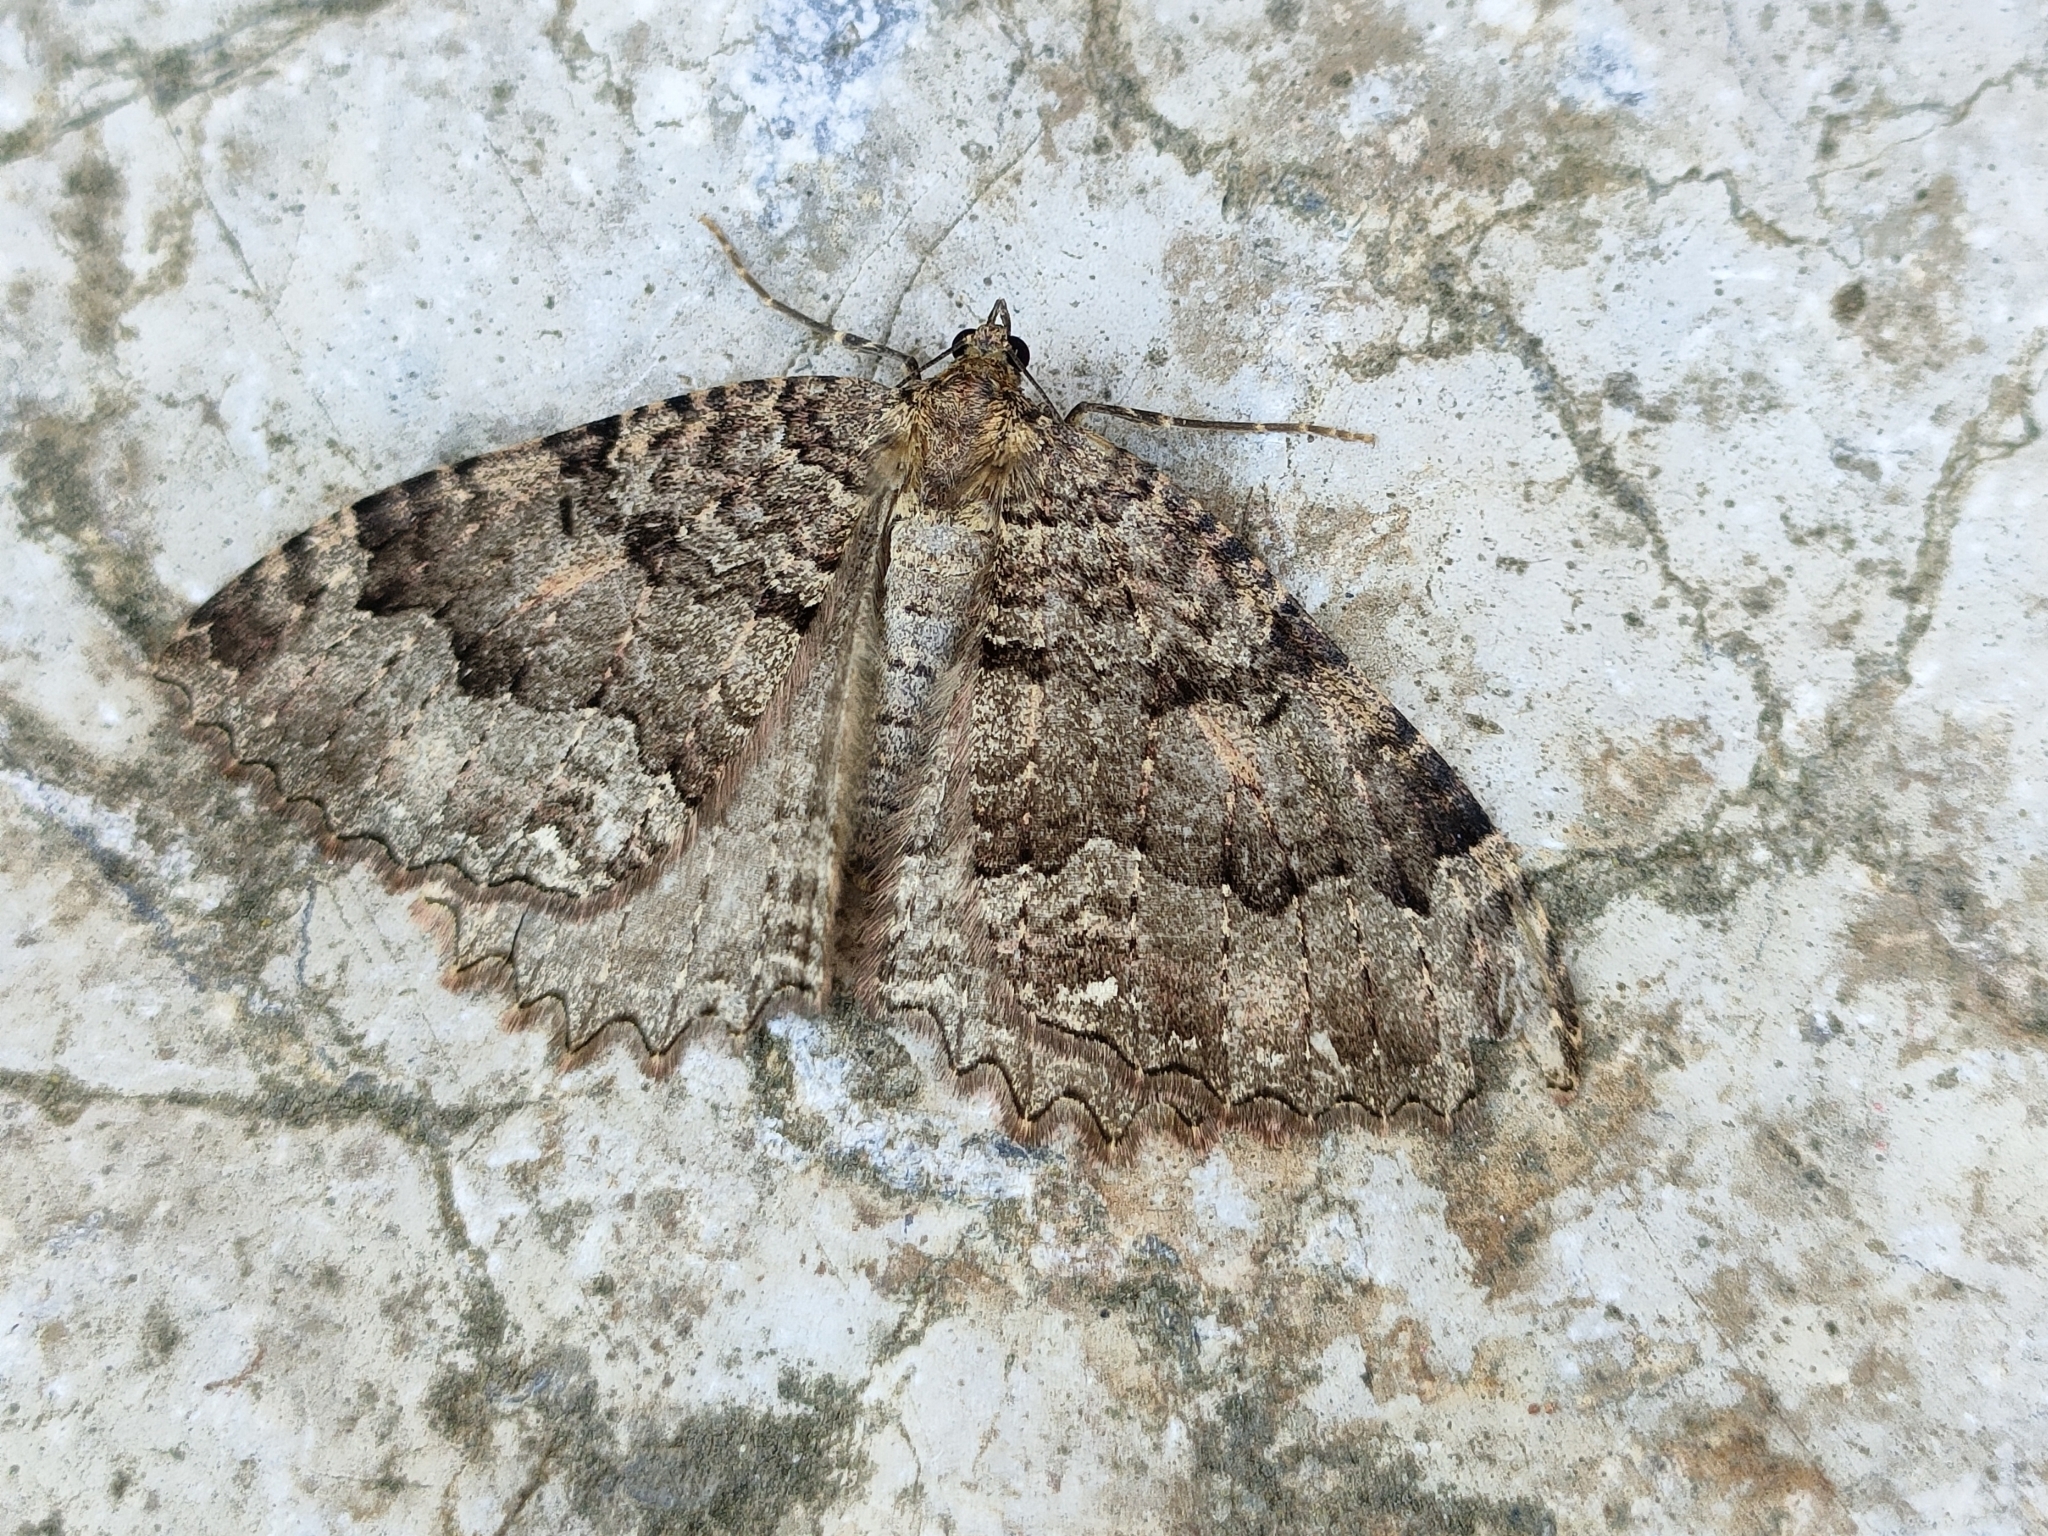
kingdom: Animalia
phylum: Arthropoda
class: Insecta
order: Lepidoptera
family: Geometridae
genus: Triphosa
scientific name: Triphosa dubitata
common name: Tissue
